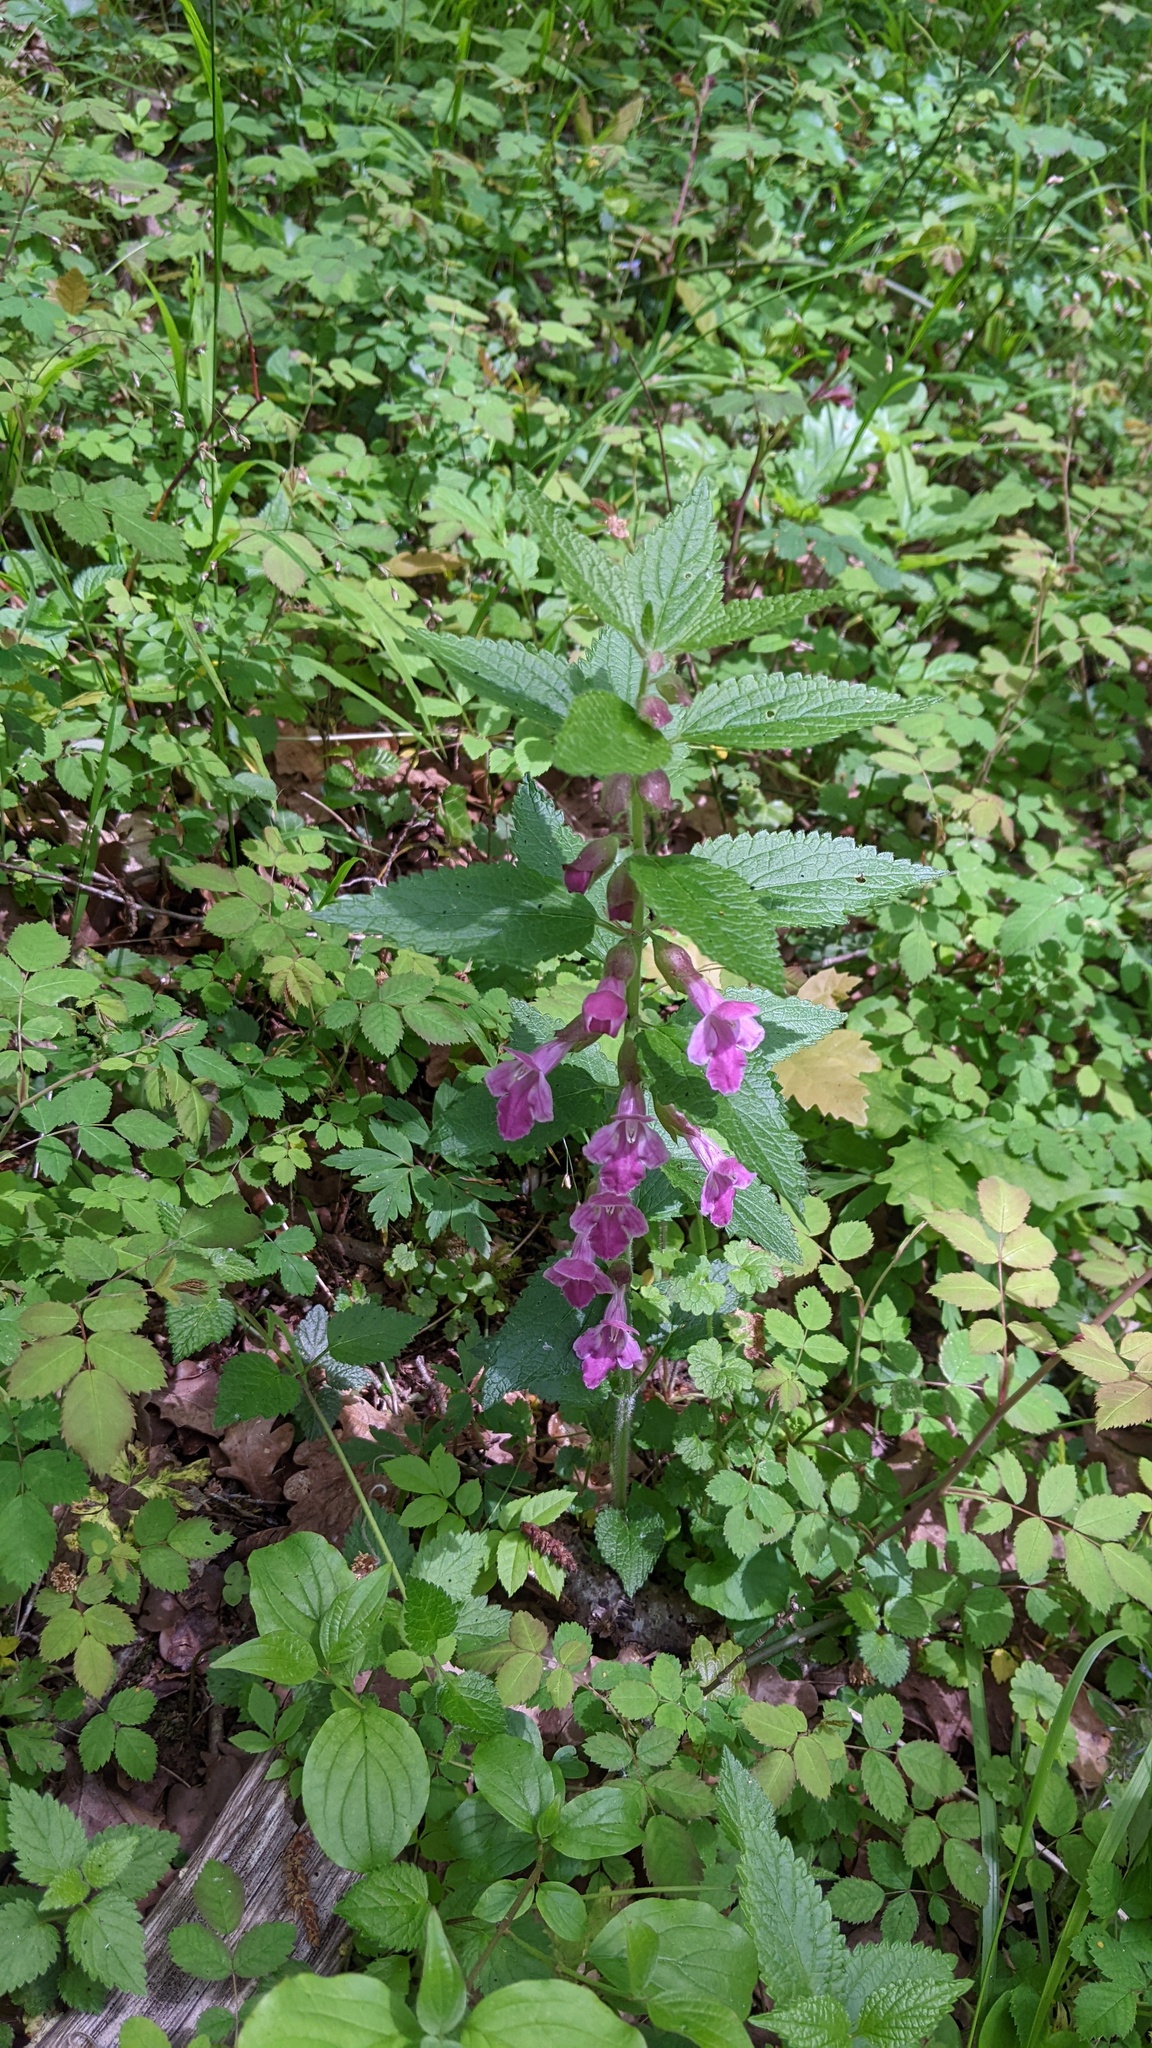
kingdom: Plantae
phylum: Tracheophyta
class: Magnoliopsida
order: Lamiales
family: Lamiaceae
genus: Melittis
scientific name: Melittis melissophyllum
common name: Bastard balm
